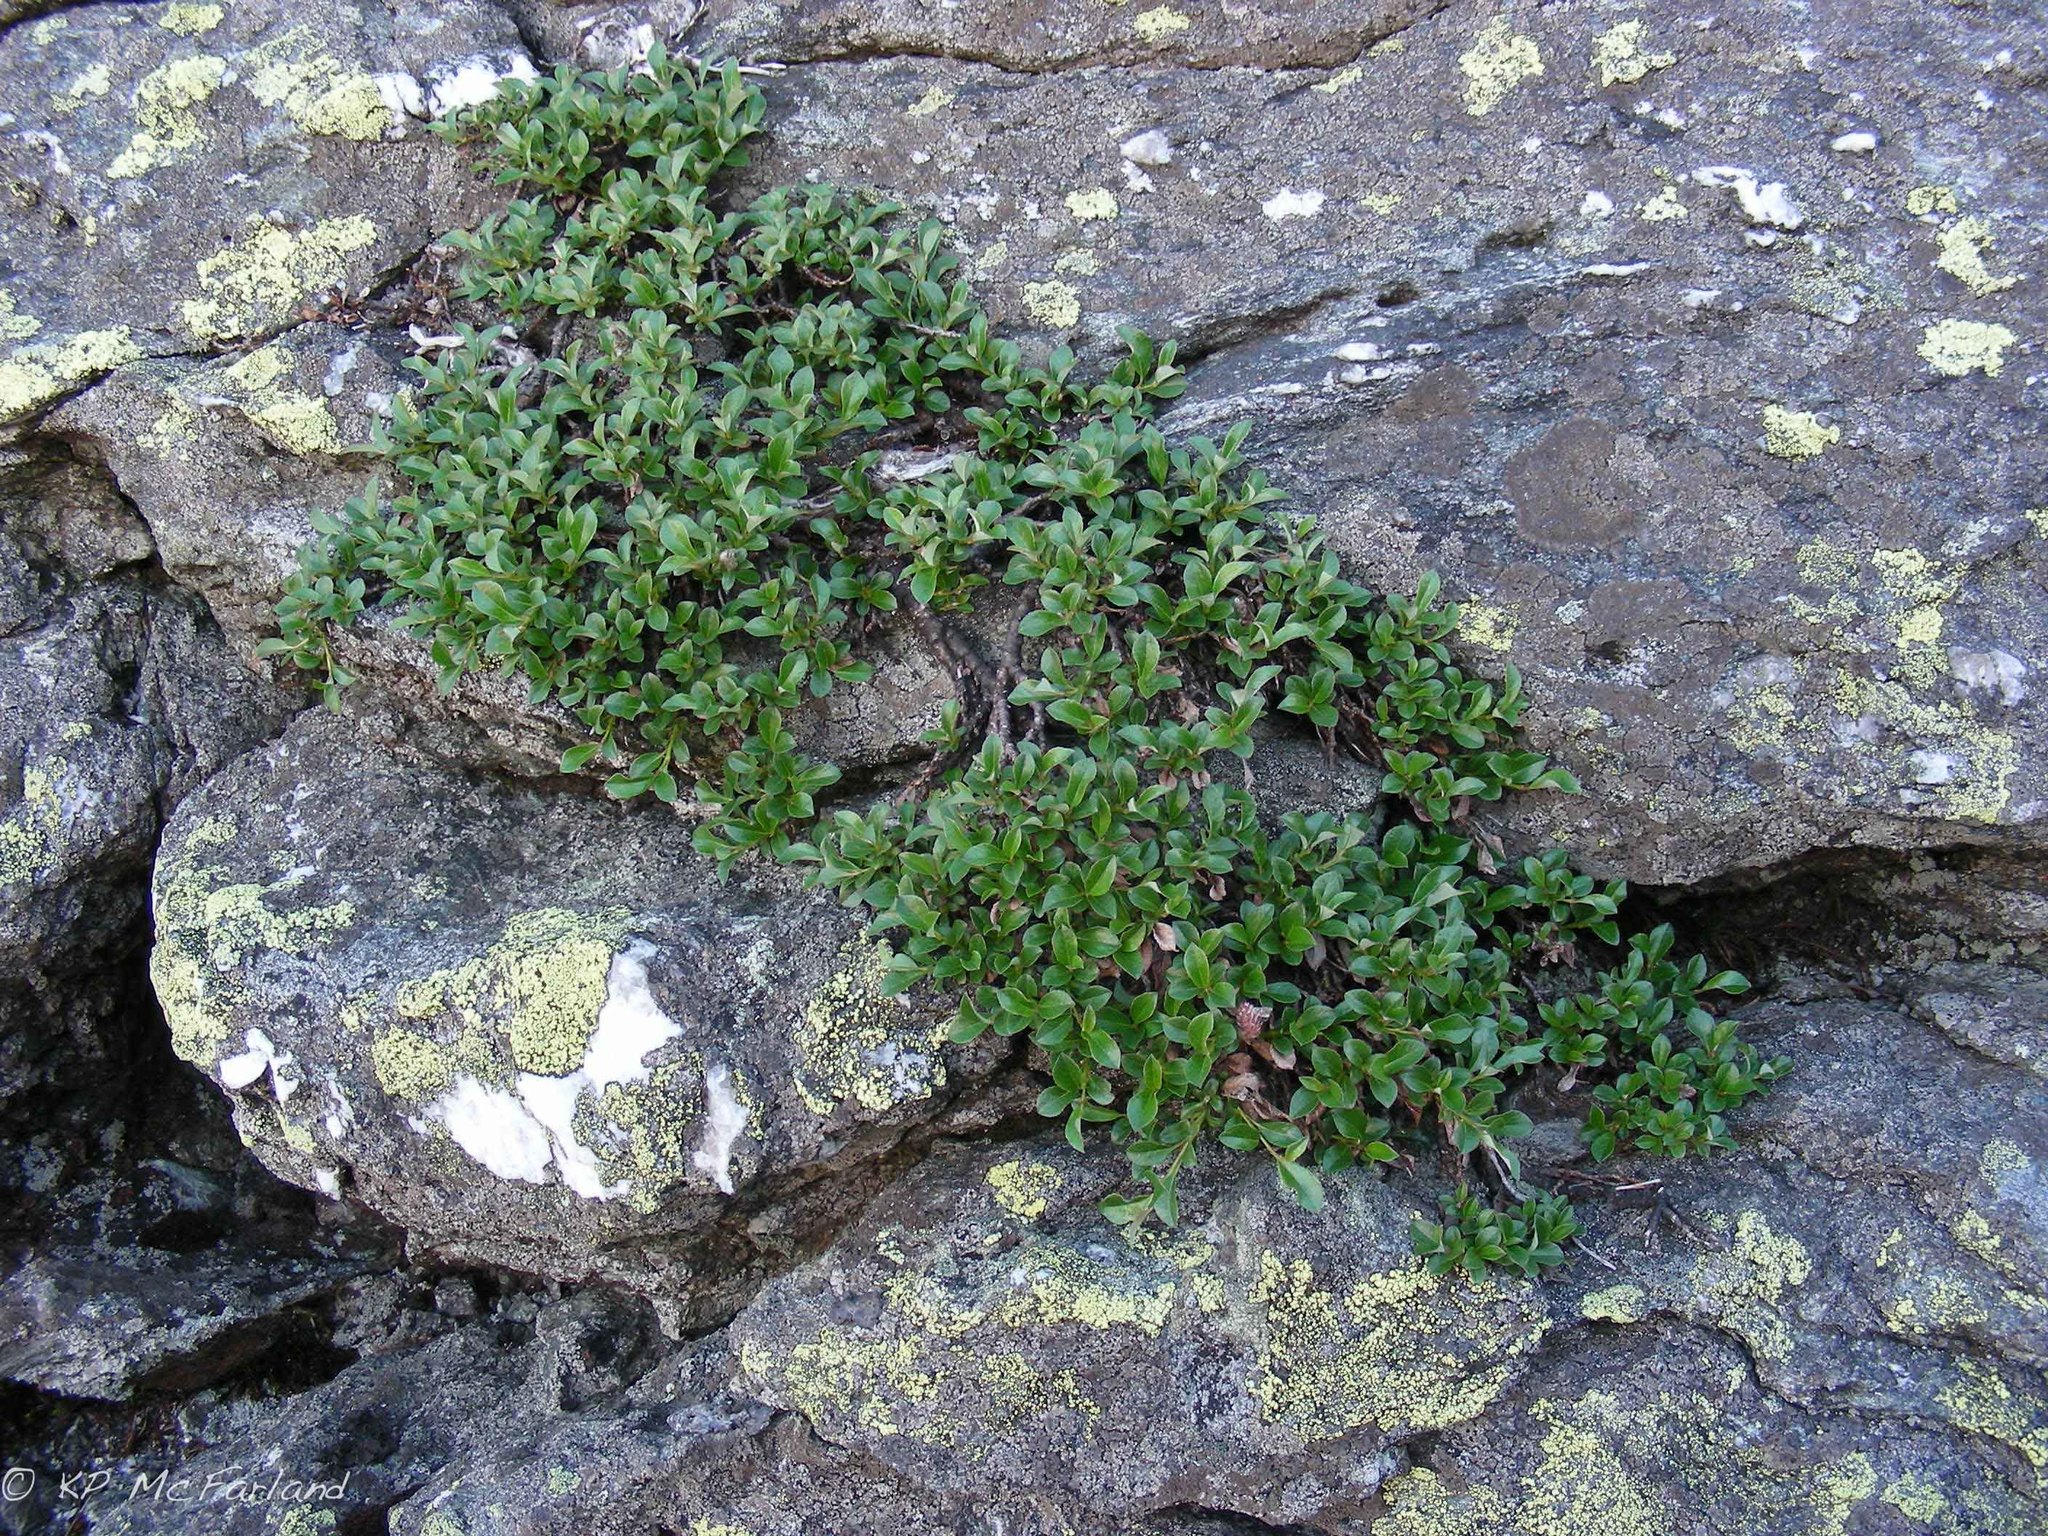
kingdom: Plantae
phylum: Tracheophyta
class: Magnoliopsida
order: Malpighiales
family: Salicaceae
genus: Salix
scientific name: Salix uva-ursi
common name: Bearberry willow
